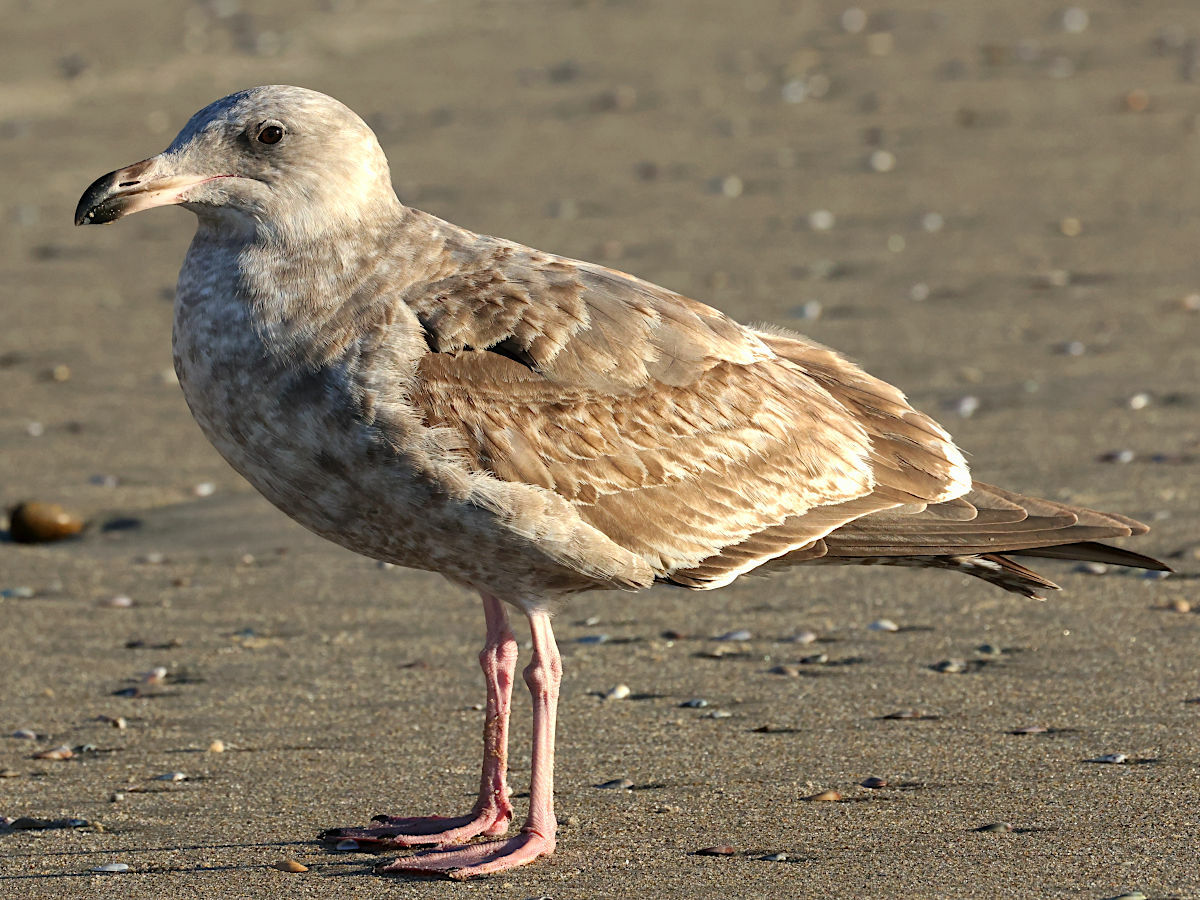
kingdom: Animalia
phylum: Chordata
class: Aves
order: Charadriiformes
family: Laridae
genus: Larus
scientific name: Larus occidentalis
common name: Western gull
